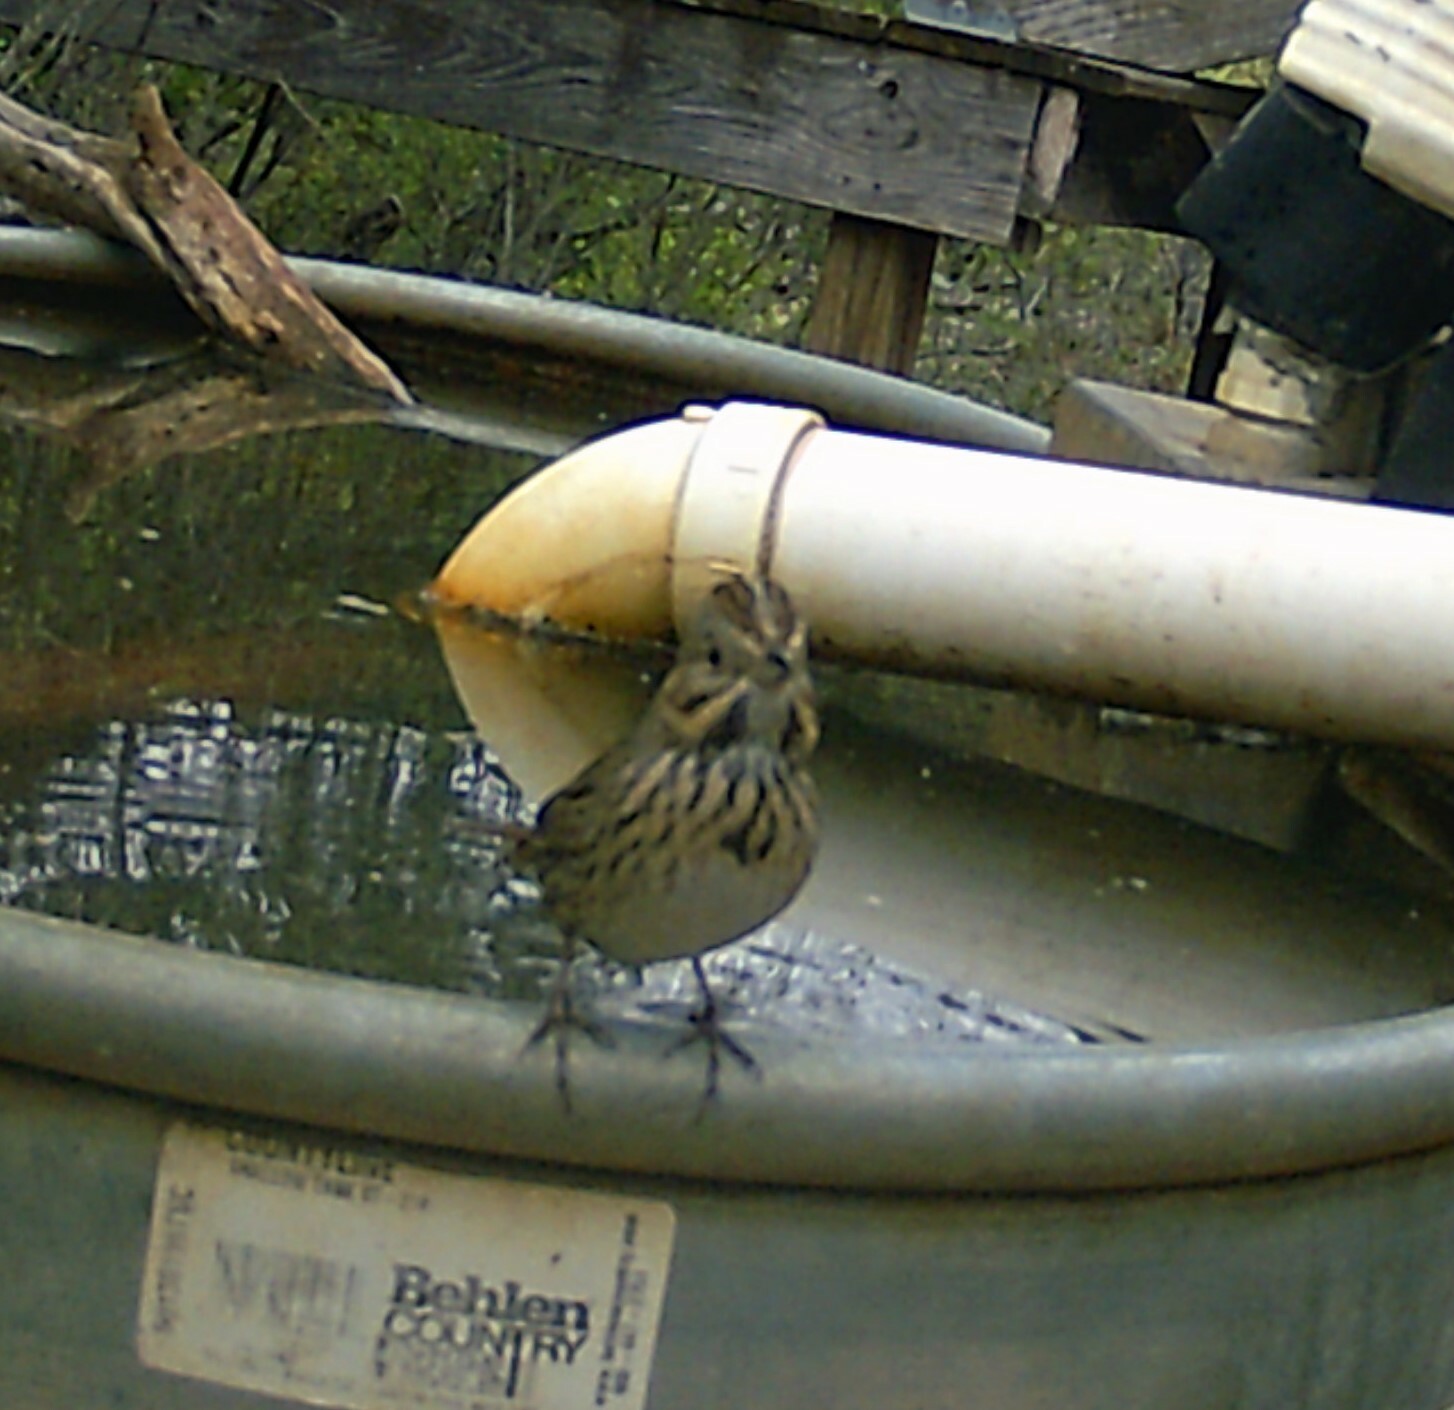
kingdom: Animalia
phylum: Chordata
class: Aves
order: Passeriformes
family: Passerellidae
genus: Melospiza
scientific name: Melospiza lincolnii
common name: Lincoln's sparrow
